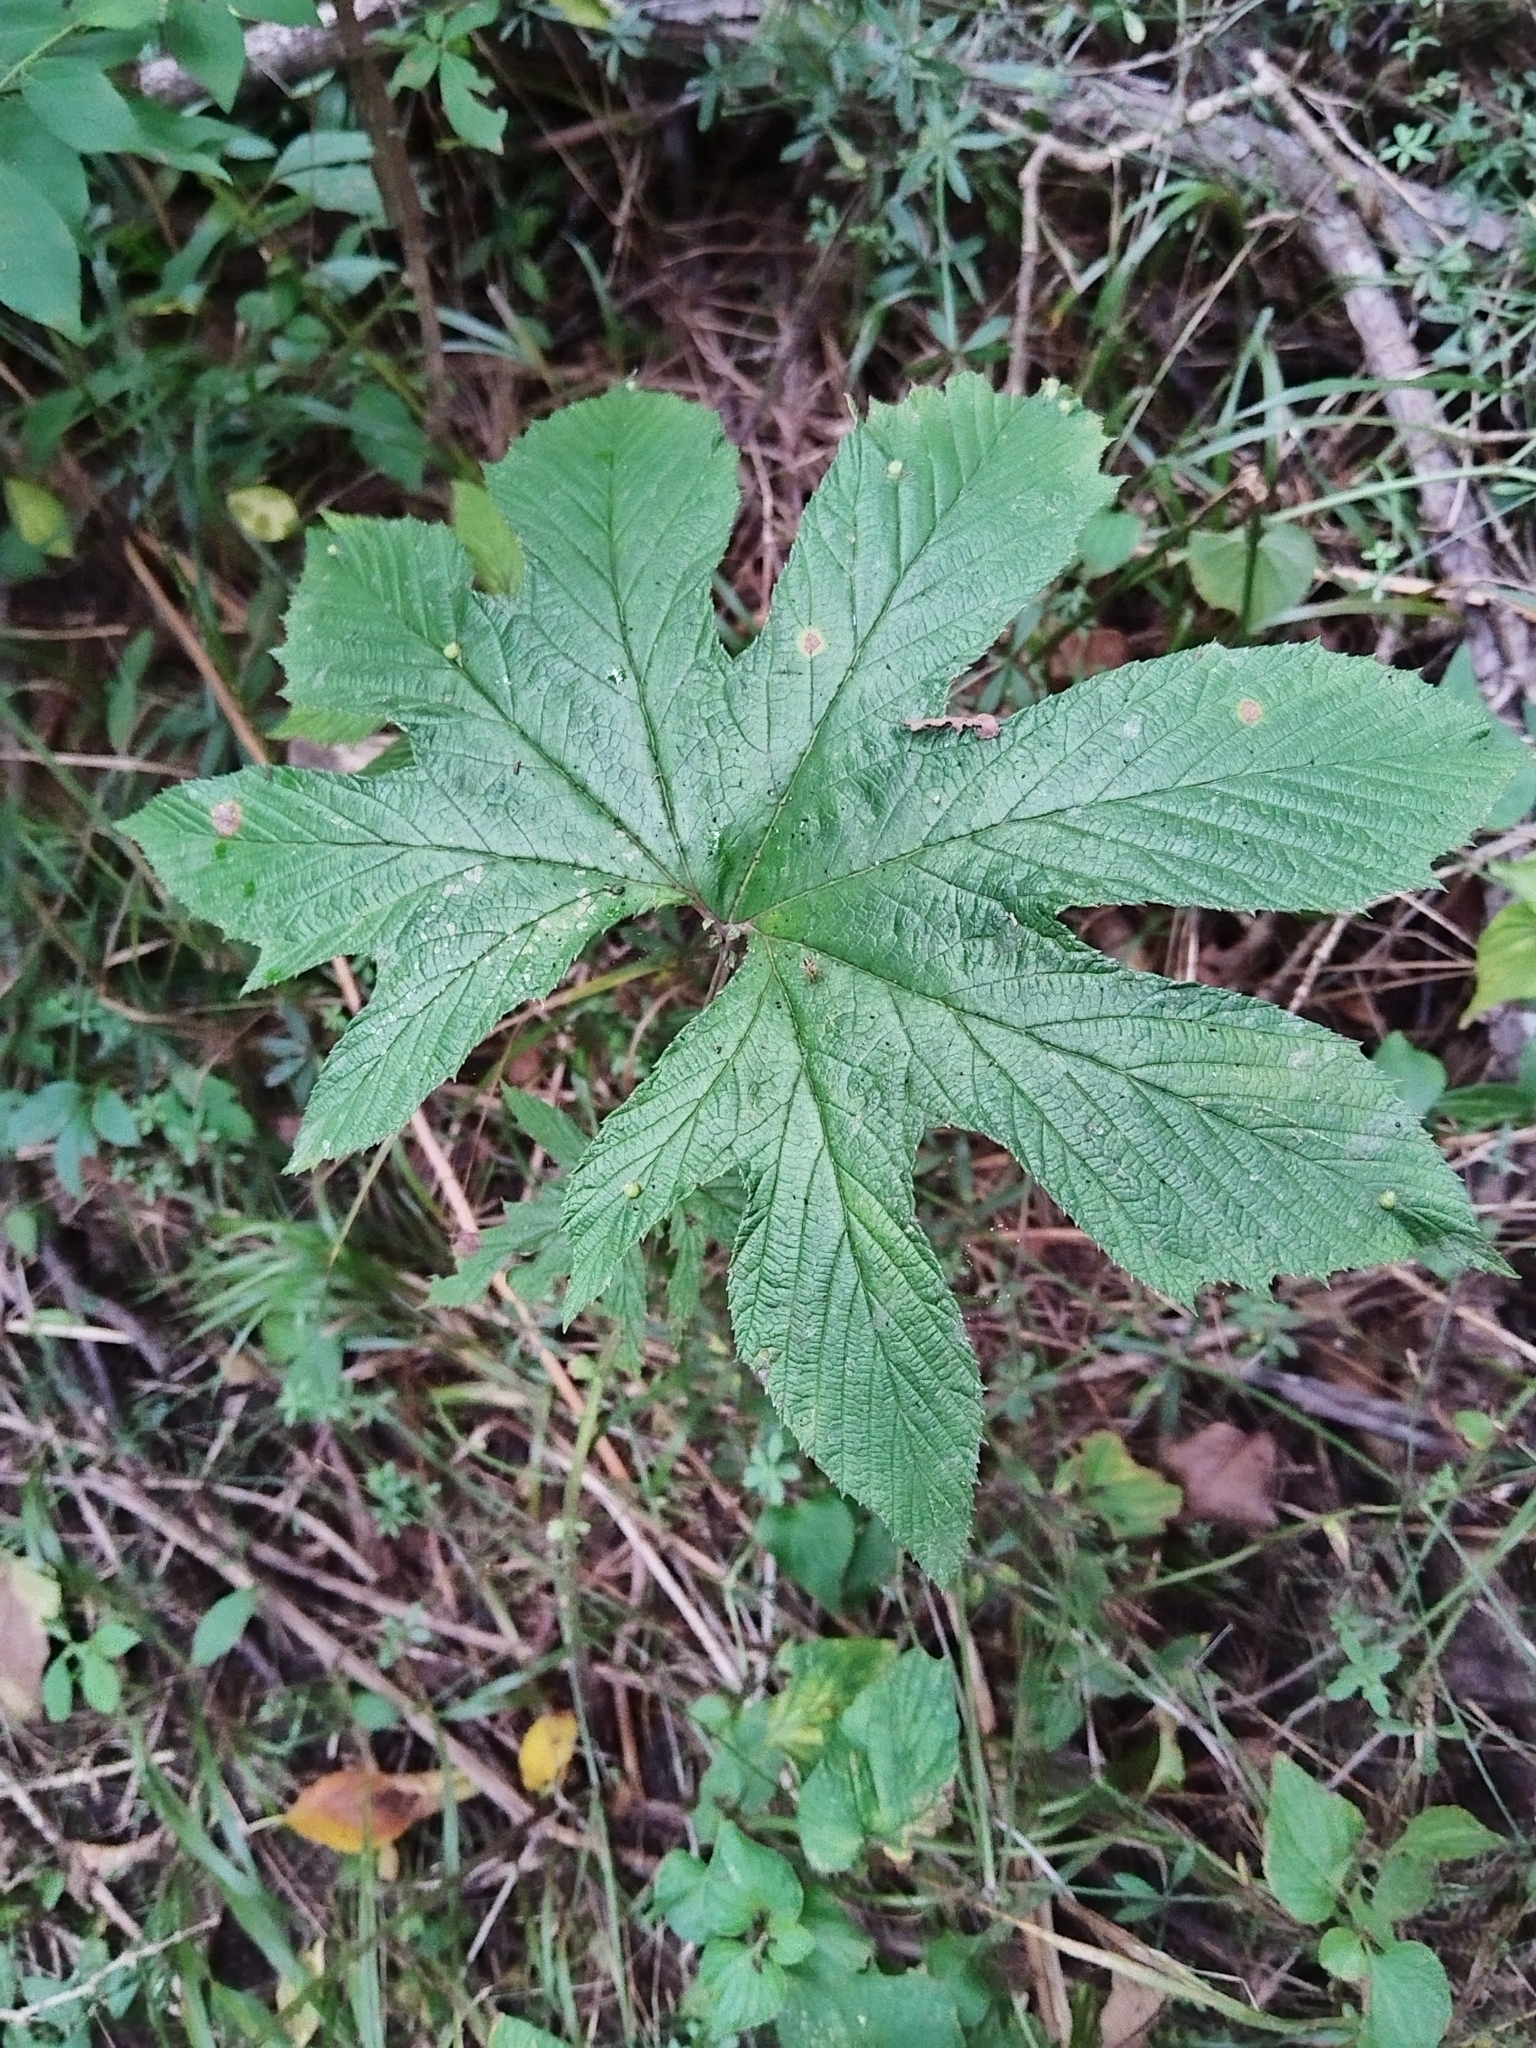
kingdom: Plantae
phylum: Tracheophyta
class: Magnoliopsida
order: Rosales
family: Rosaceae
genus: Filipendula
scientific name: Filipendula digitata
